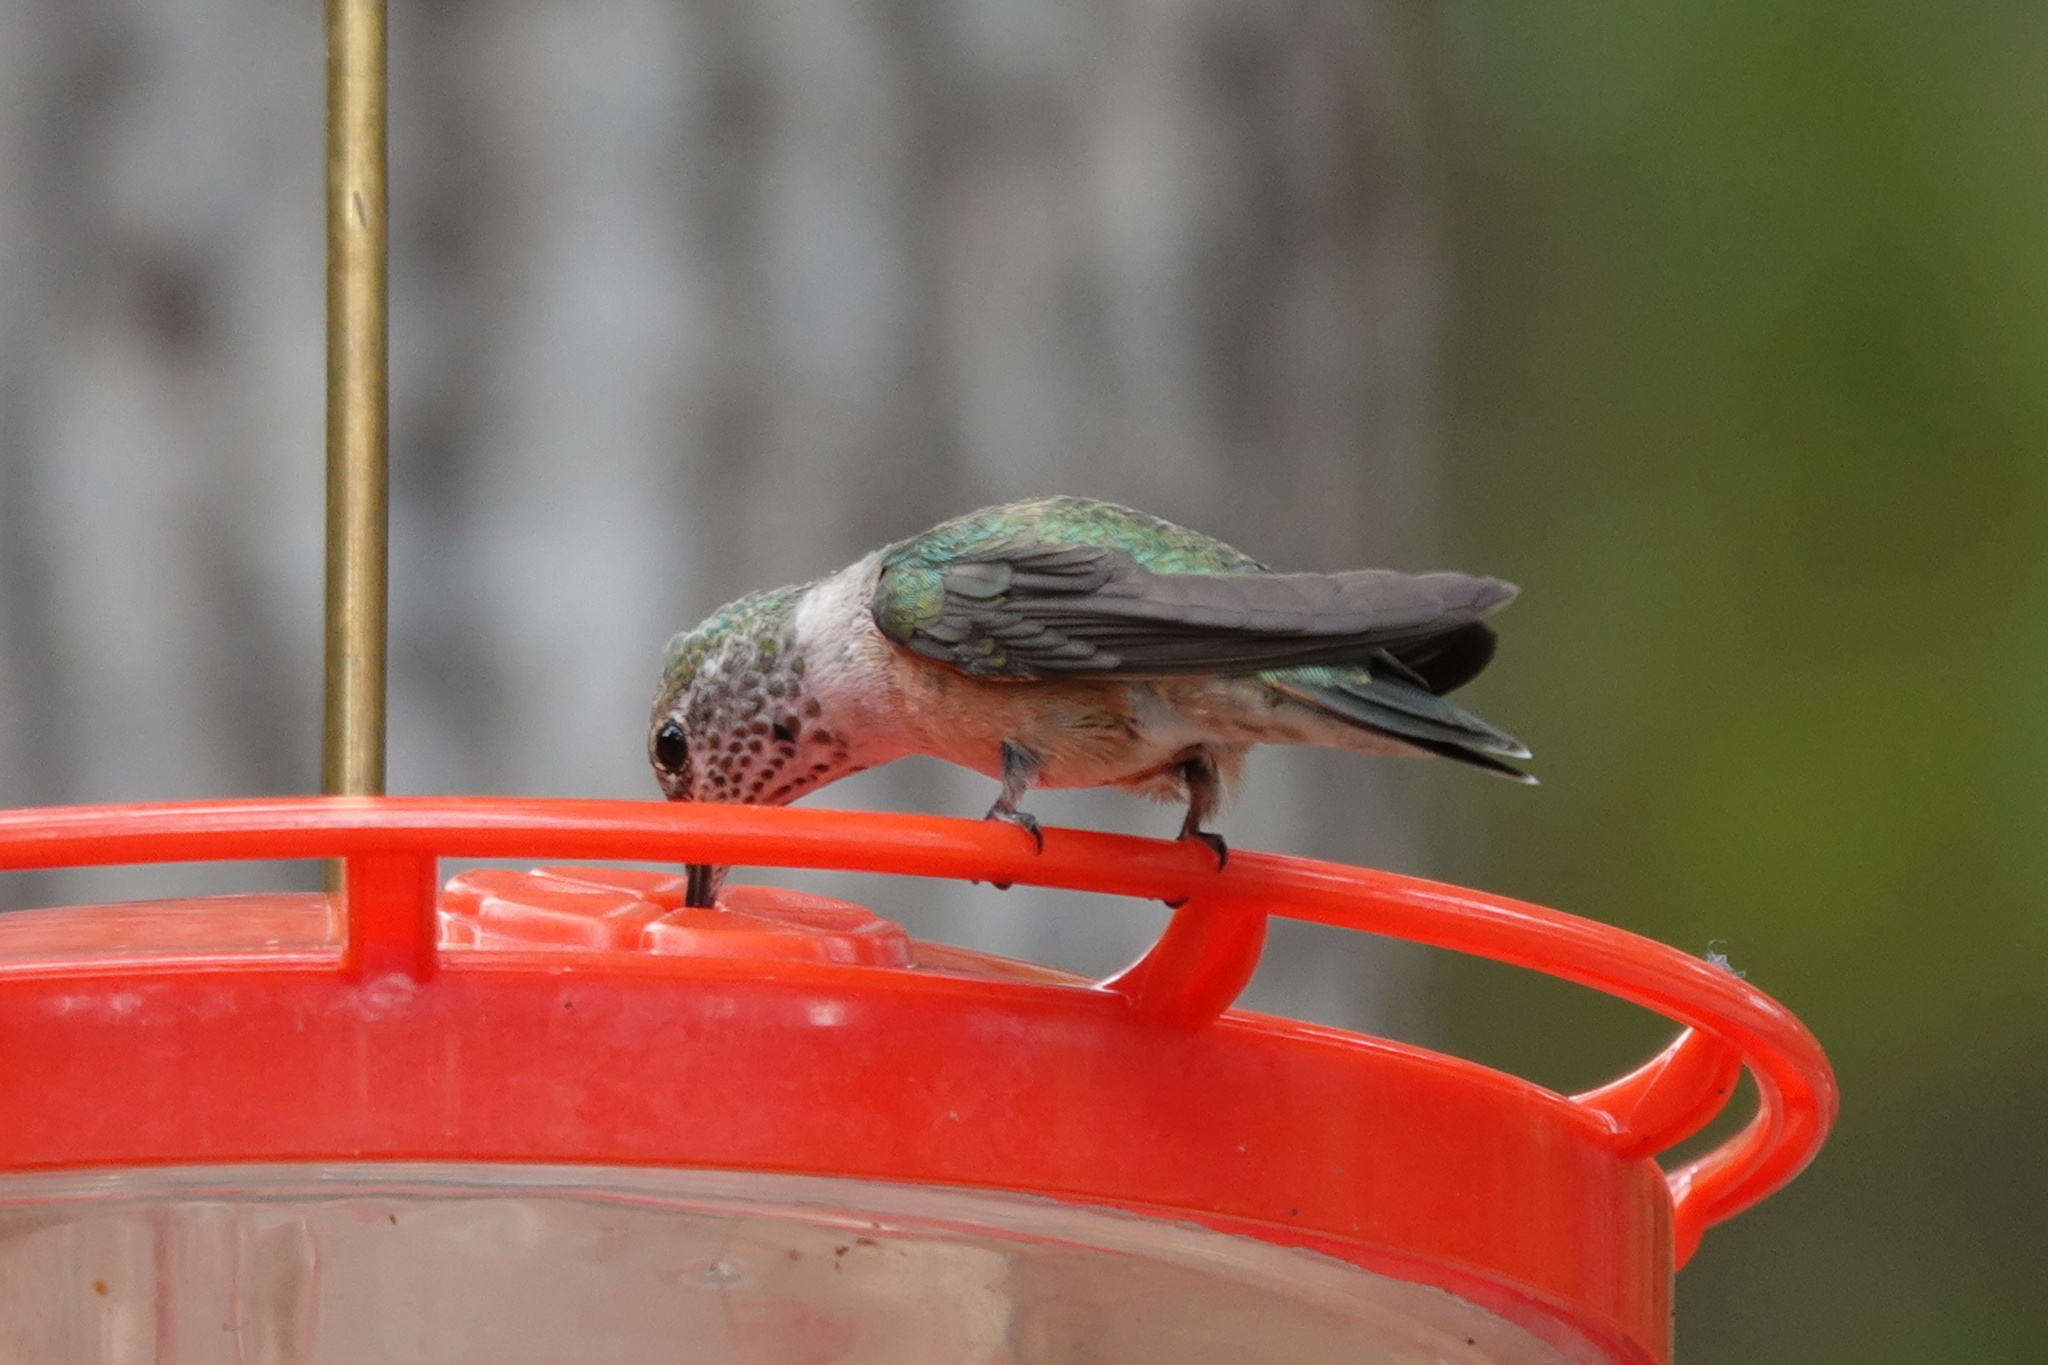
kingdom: Animalia
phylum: Chordata
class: Aves
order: Apodiformes
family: Trochilidae
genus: Selasphorus
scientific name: Selasphorus platycercus
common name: Broad-tailed hummingbird
